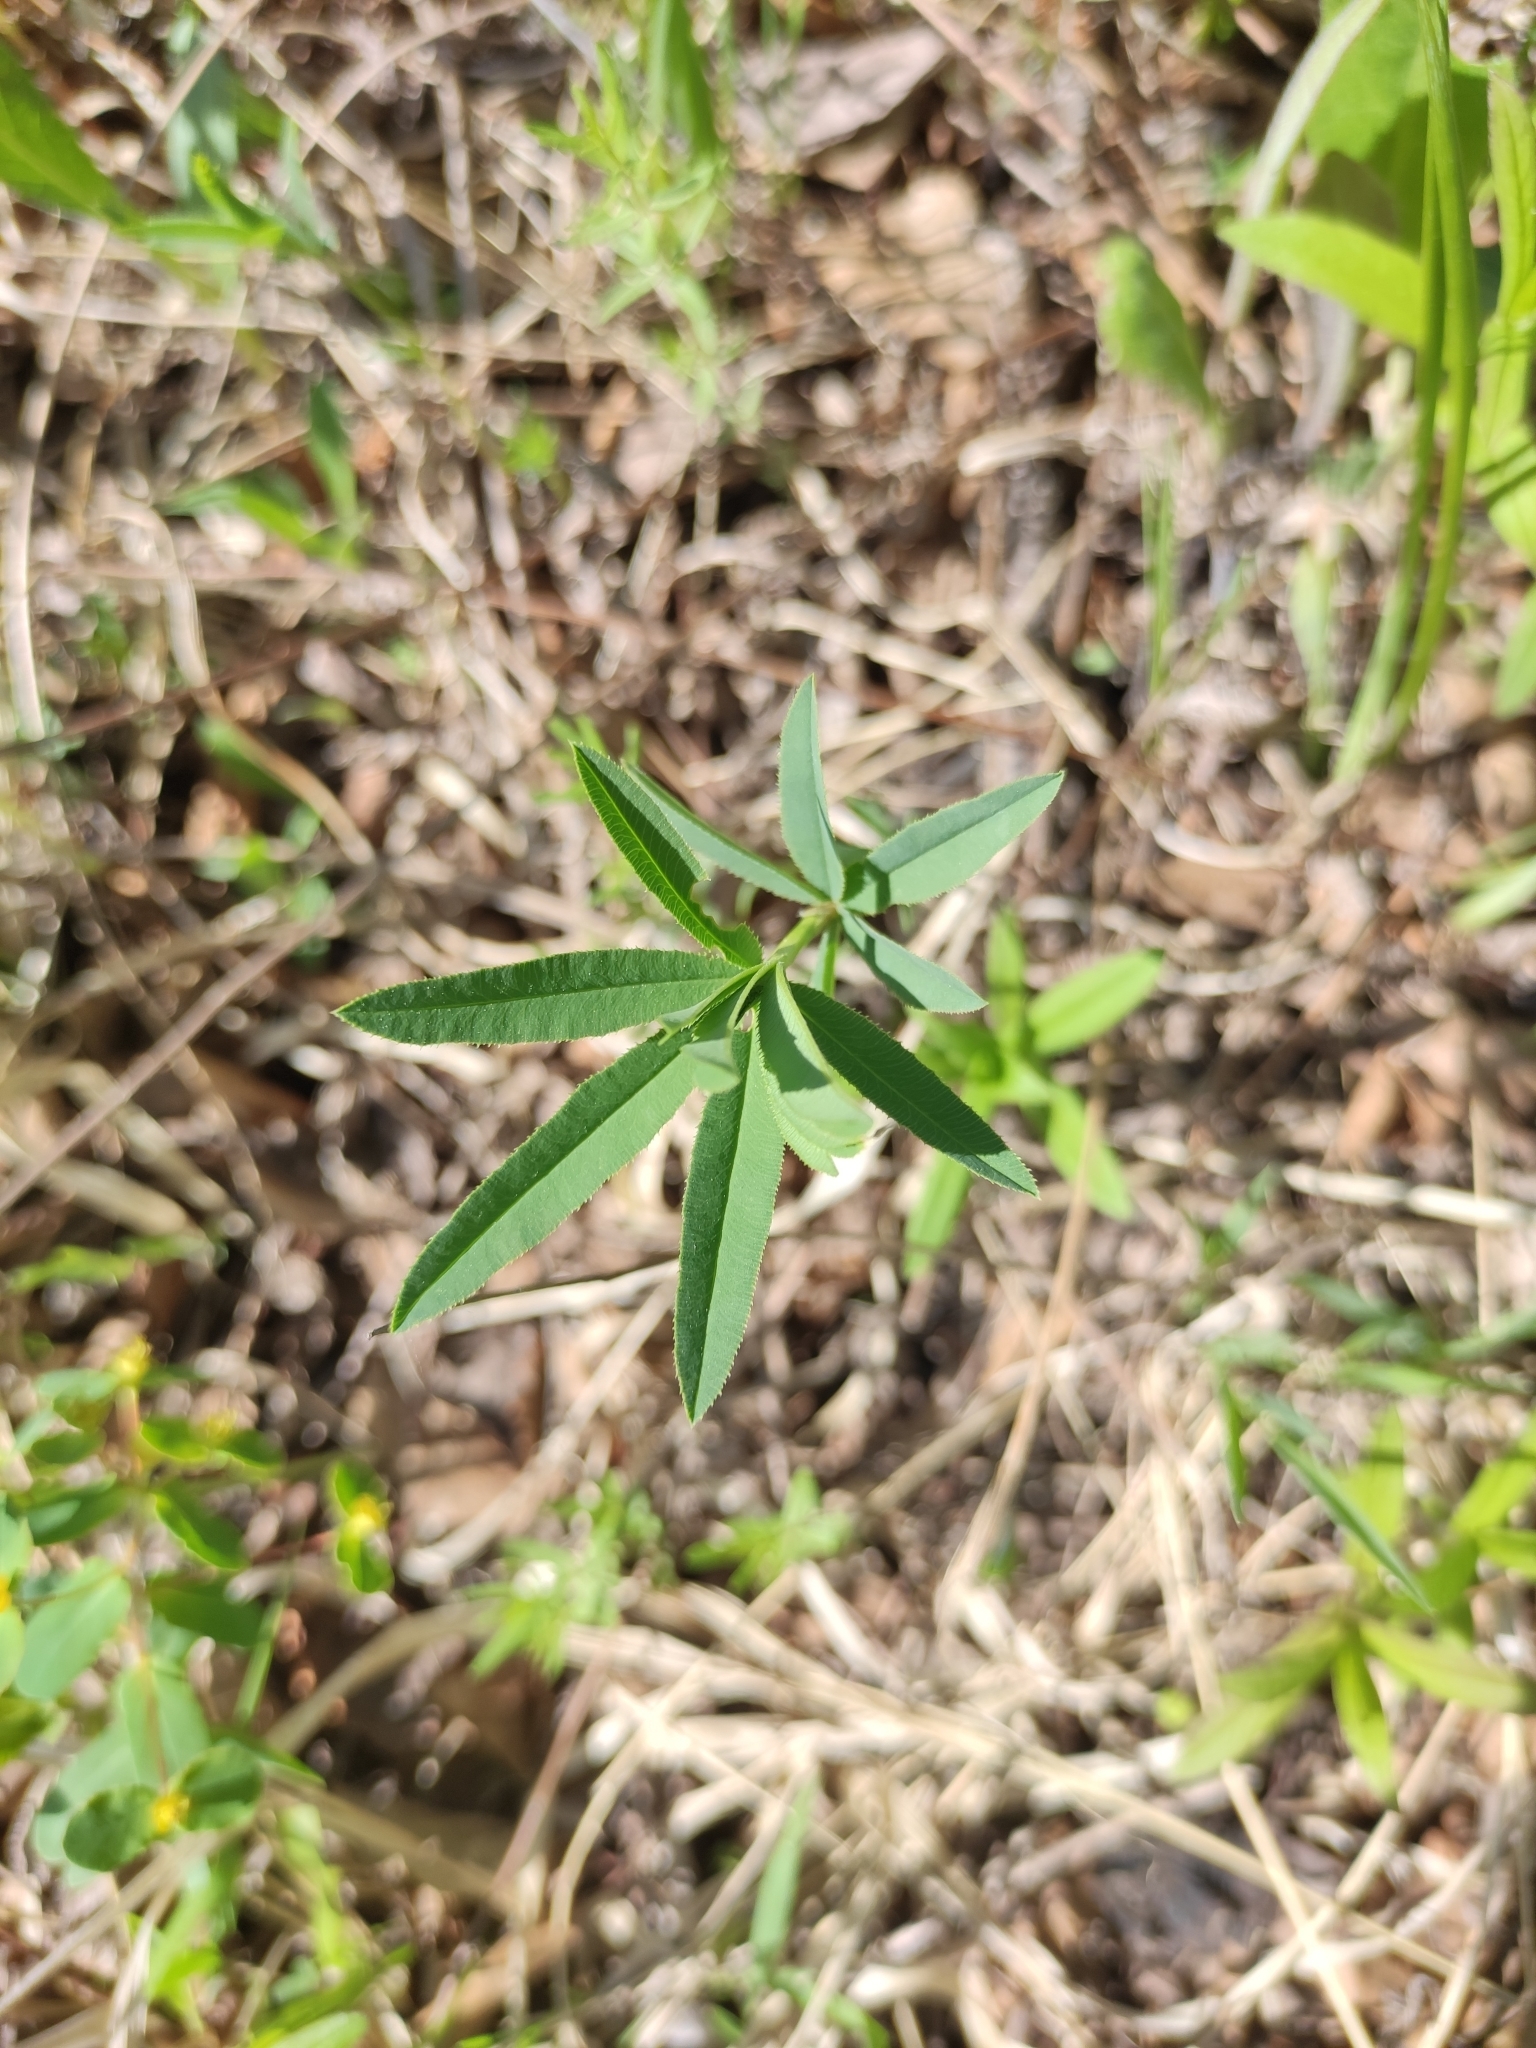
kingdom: Plantae
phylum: Tracheophyta
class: Magnoliopsida
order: Fabales
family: Fabaceae
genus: Trifolium
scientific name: Trifolium lupinaster
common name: Lupine clover
